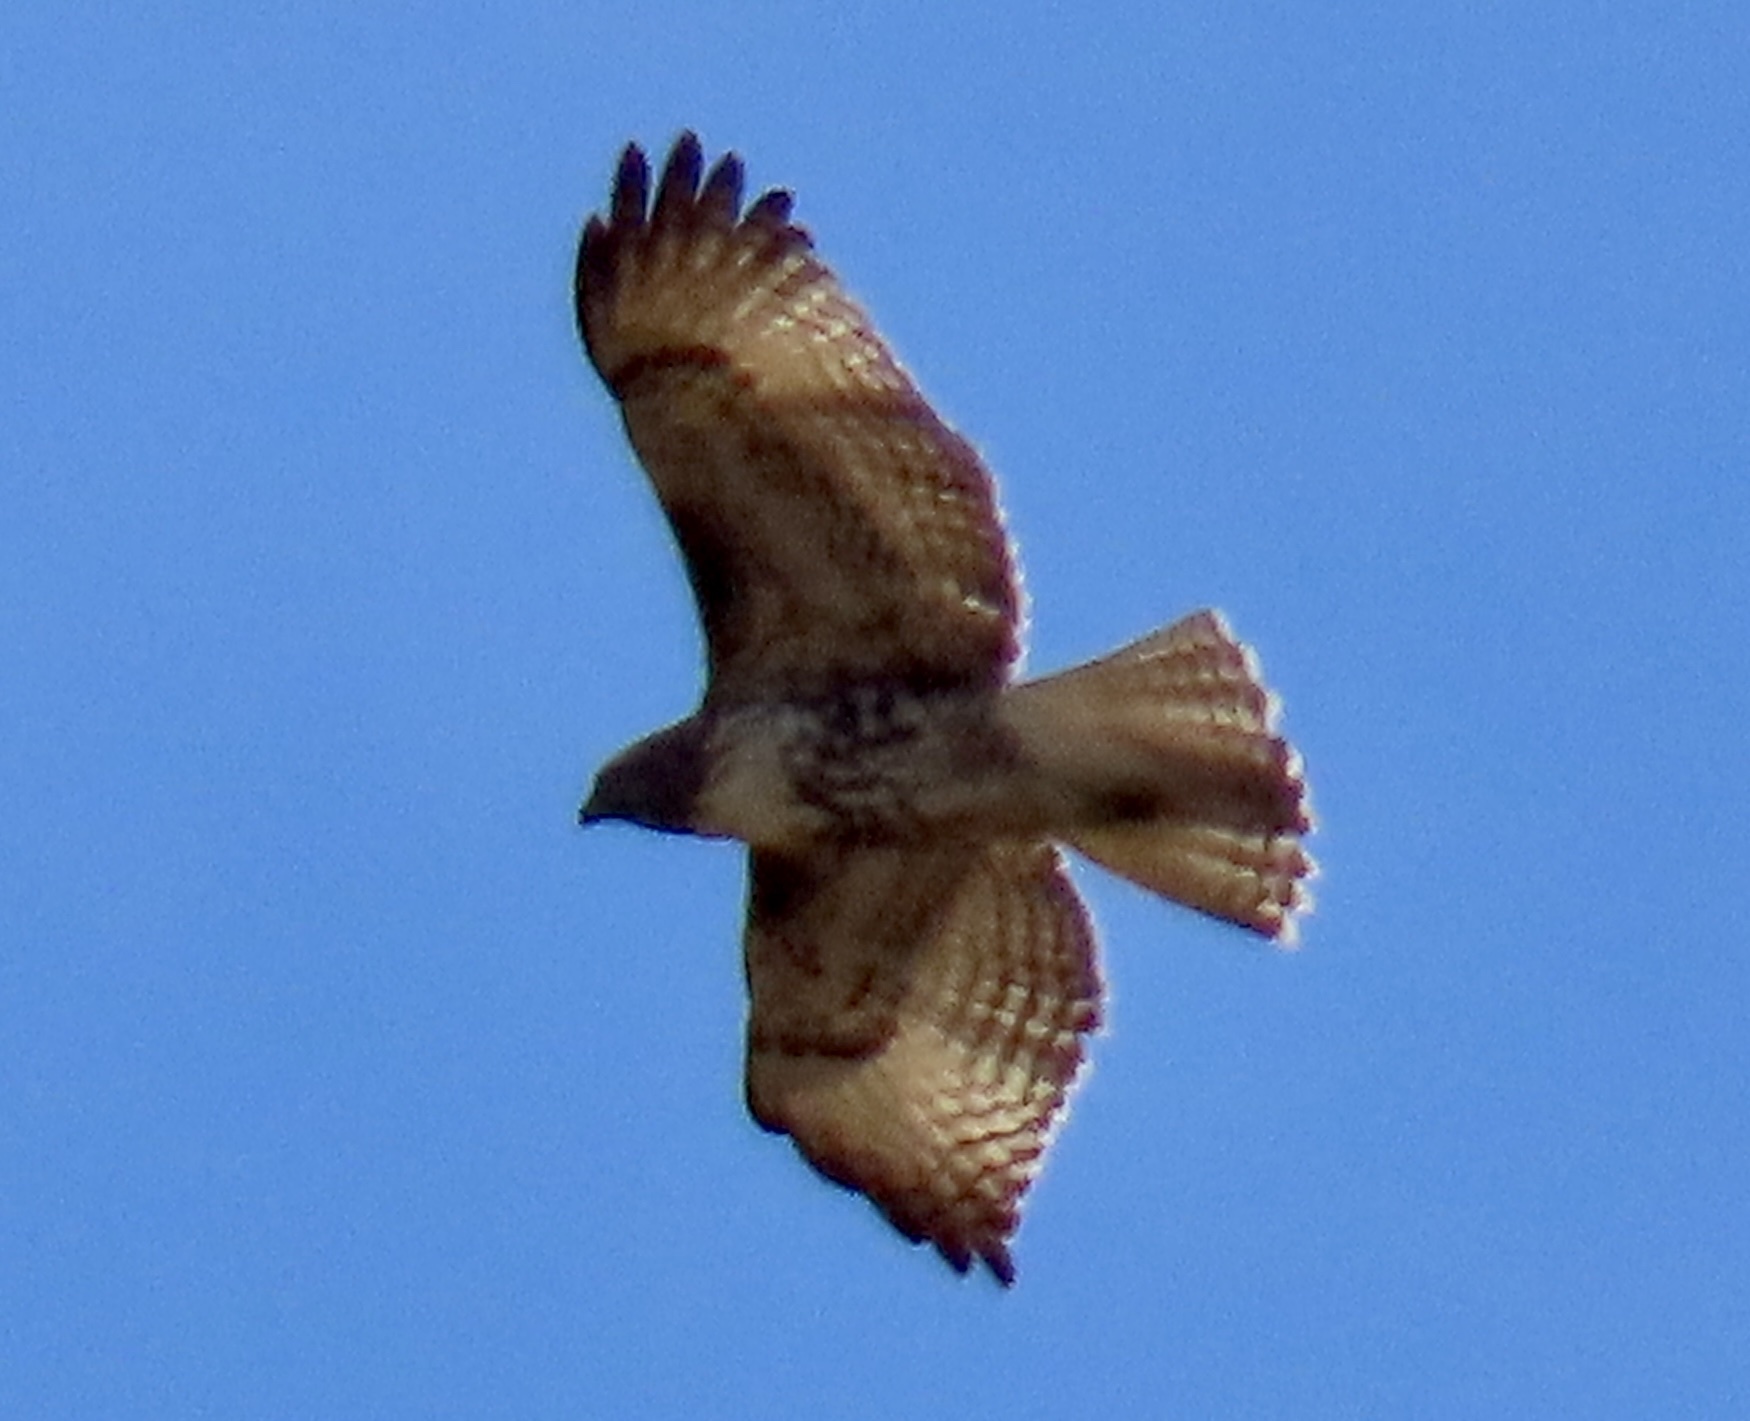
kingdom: Animalia
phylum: Chordata
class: Aves
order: Accipitriformes
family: Accipitridae
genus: Buteo
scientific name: Buteo jamaicensis
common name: Red-tailed hawk
